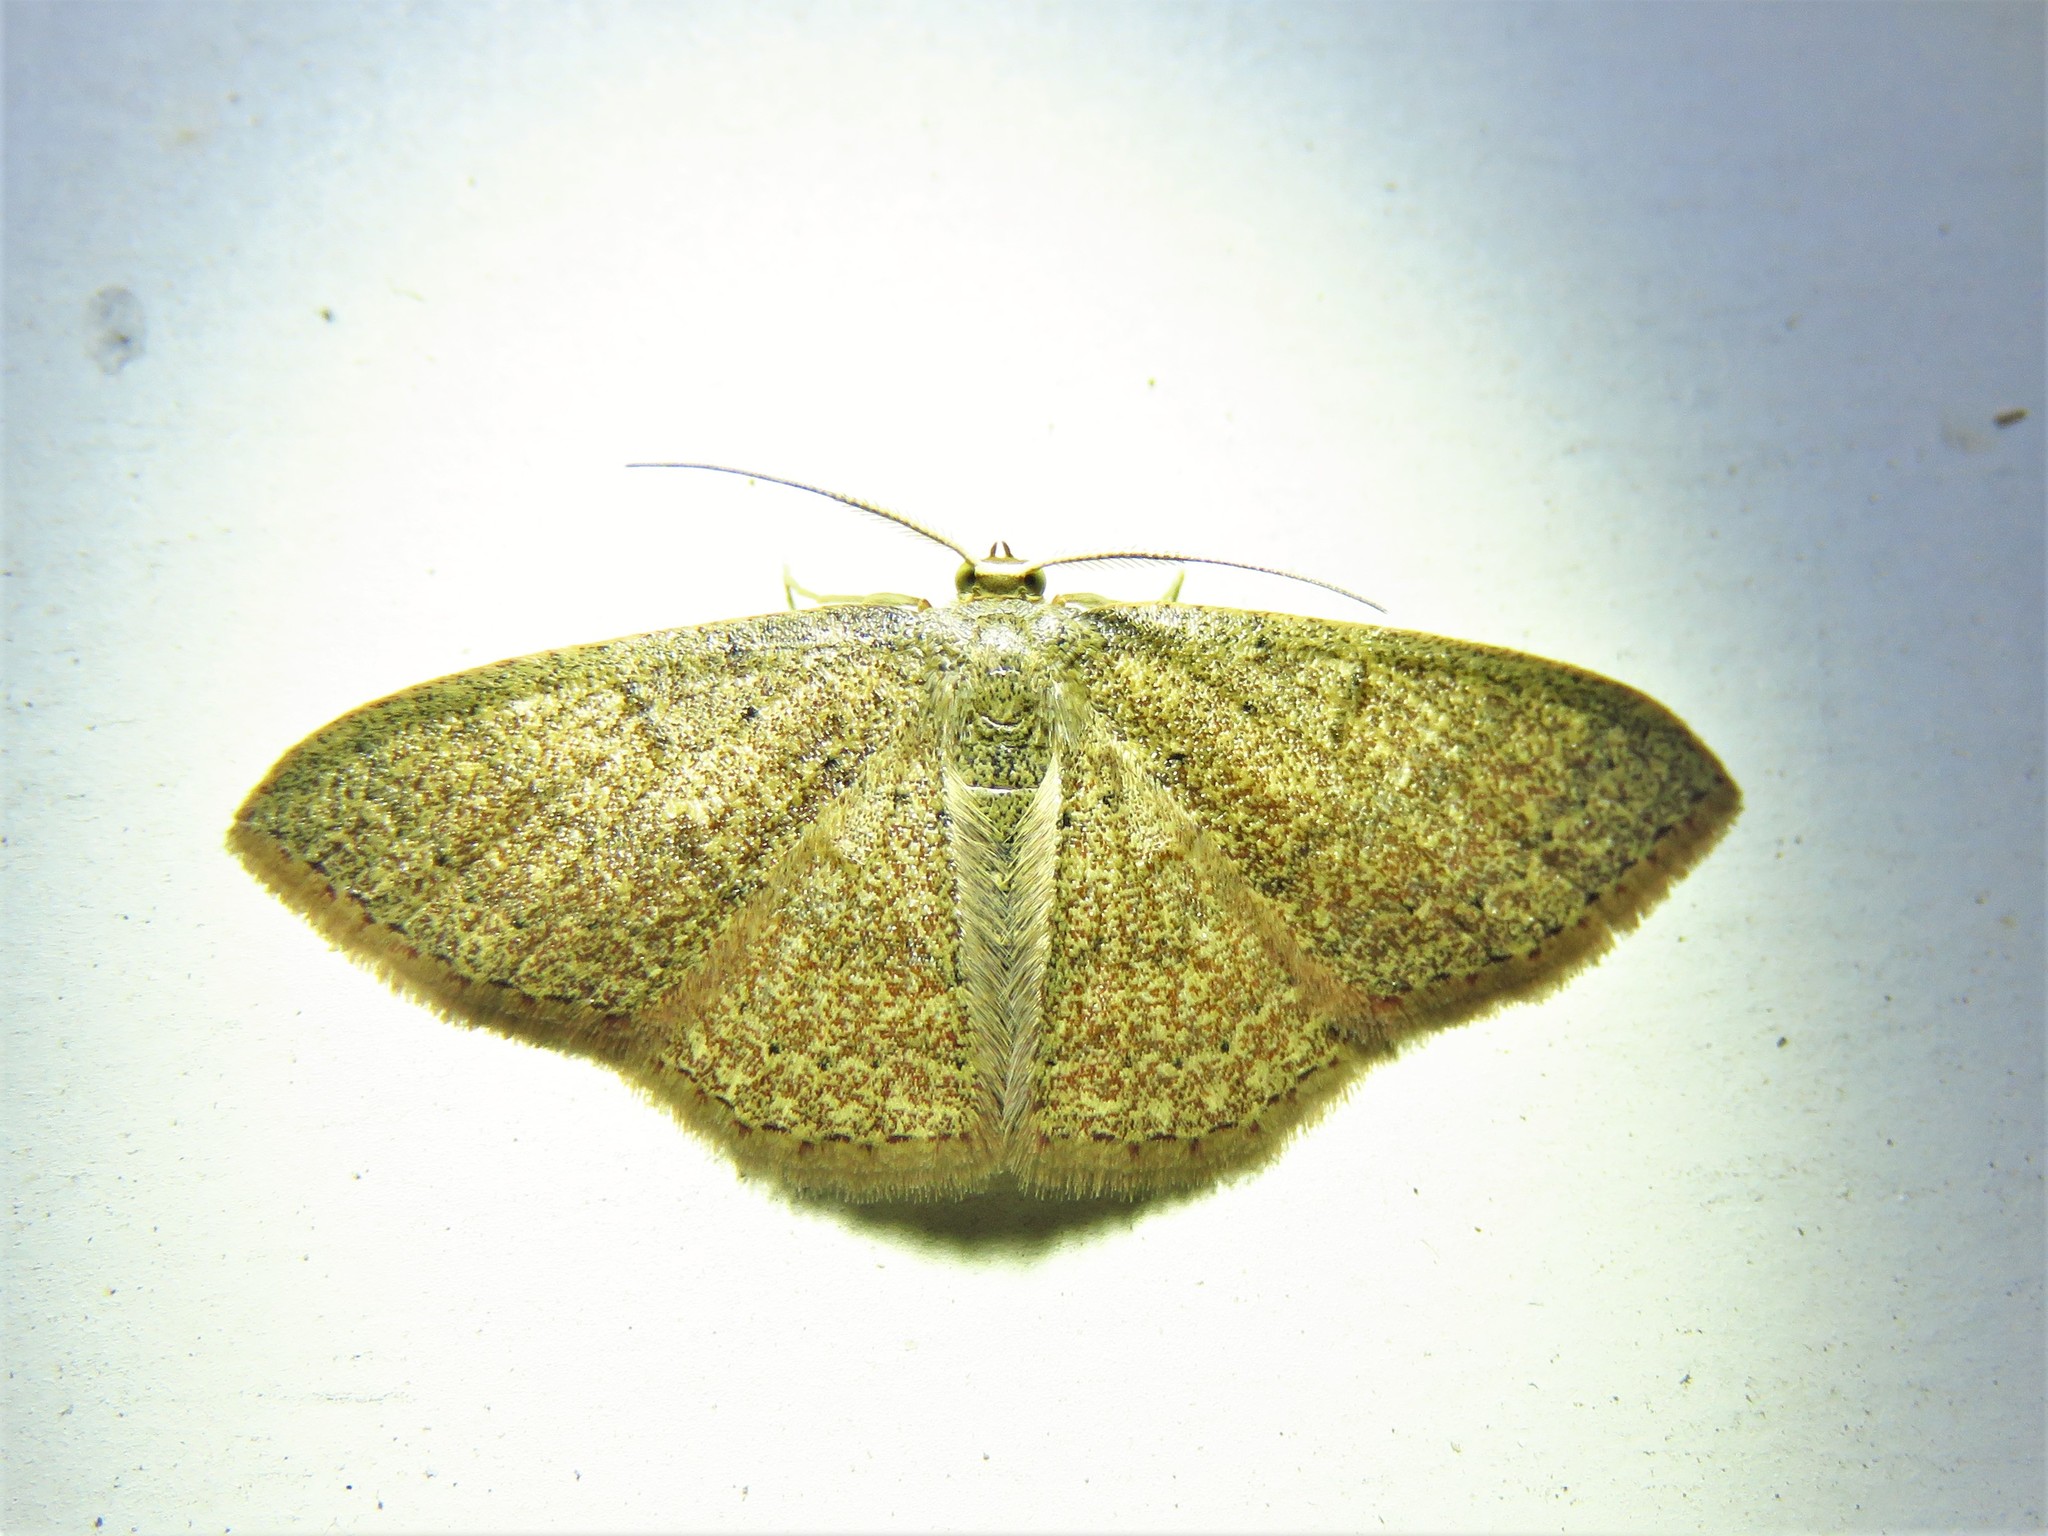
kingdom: Animalia
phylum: Arthropoda
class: Insecta
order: Lepidoptera
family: Geometridae
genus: Pleuroprucha
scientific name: Pleuroprucha insulsaria
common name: Common tan wave
